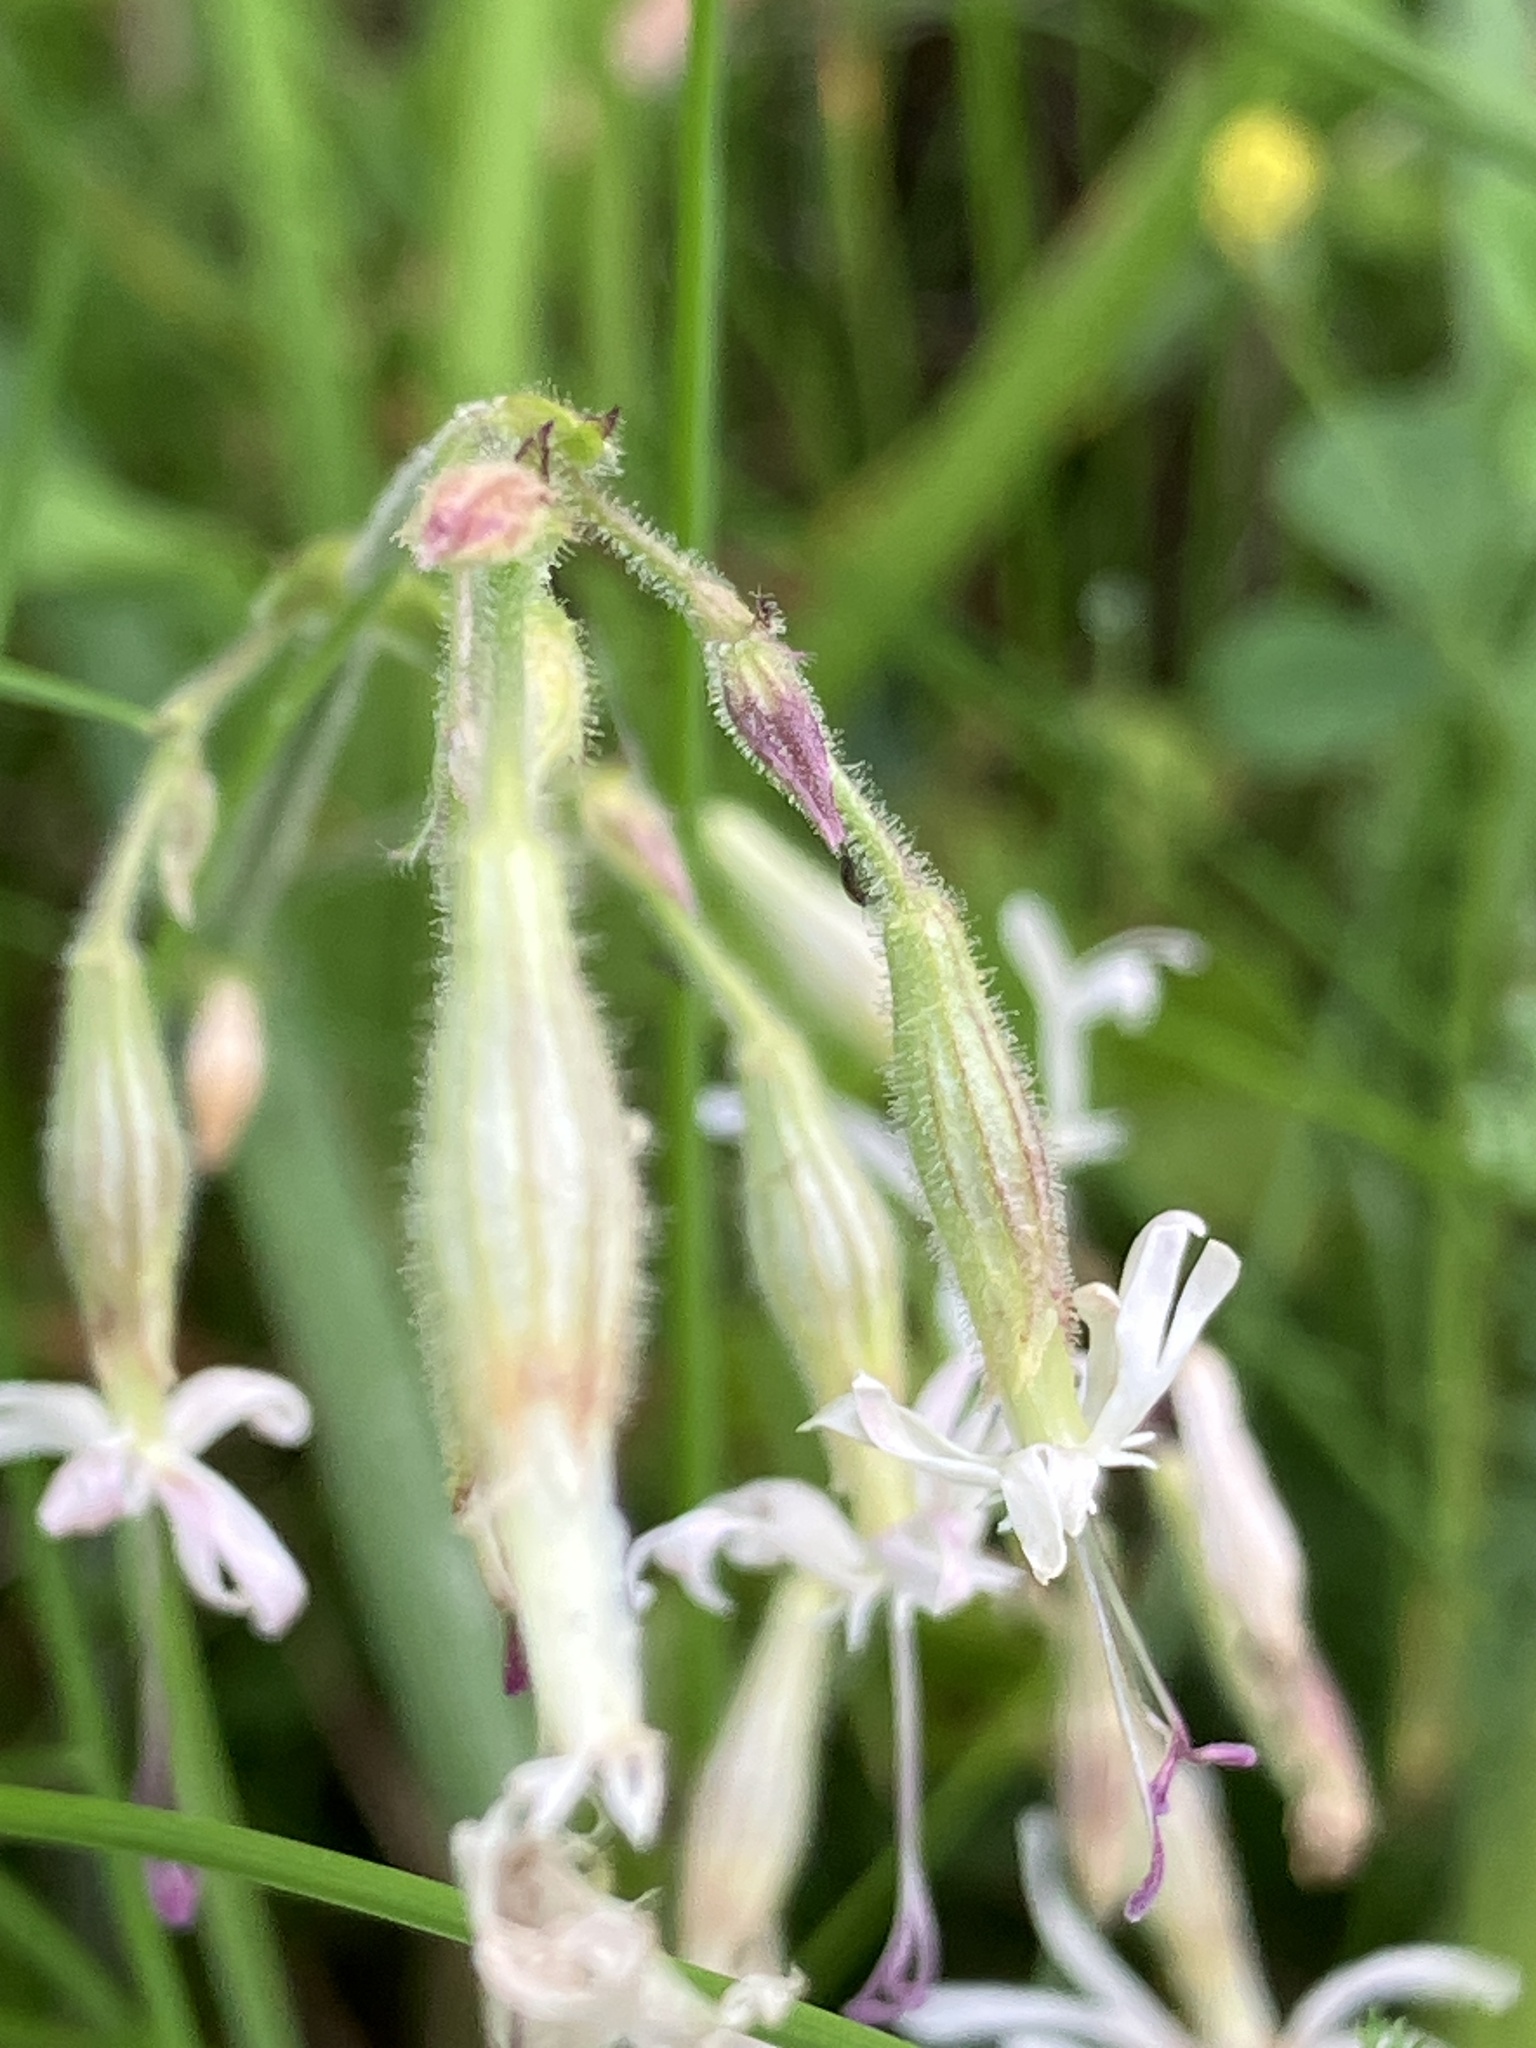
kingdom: Plantae
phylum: Tracheophyta
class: Magnoliopsida
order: Caryophyllales
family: Caryophyllaceae
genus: Silene
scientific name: Silene nutans
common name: Nottingham catchfly
